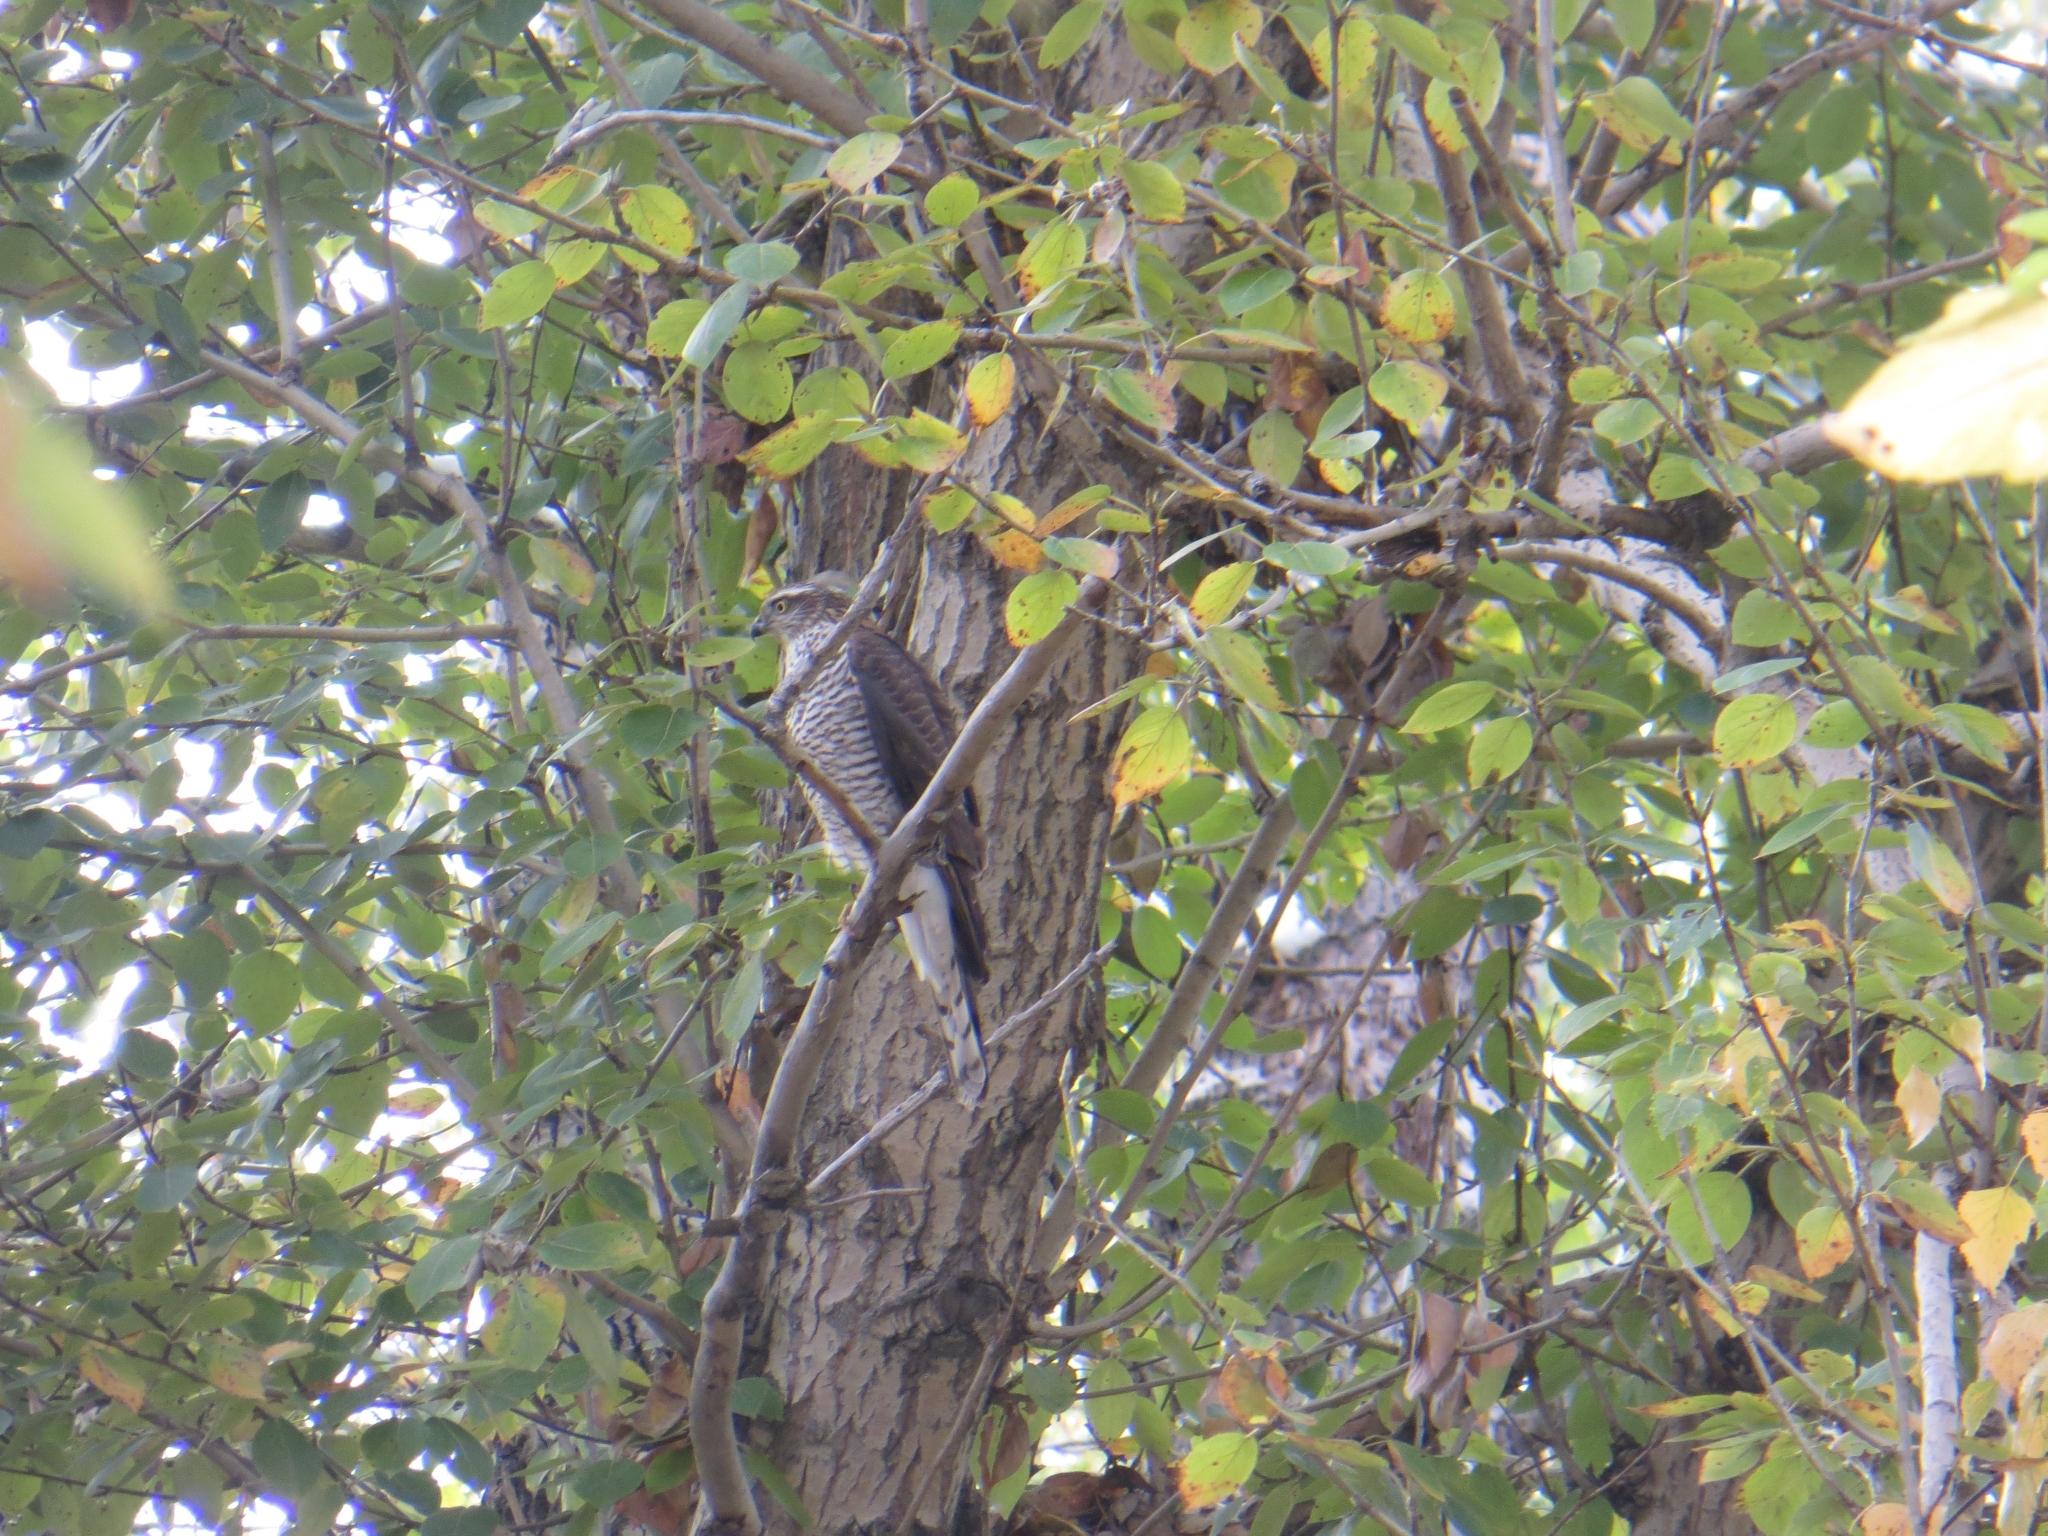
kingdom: Animalia
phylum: Chordata
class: Aves
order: Accipitriformes
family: Accipitridae
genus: Accipiter
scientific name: Accipiter nisus
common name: Eurasian sparrowhawk
